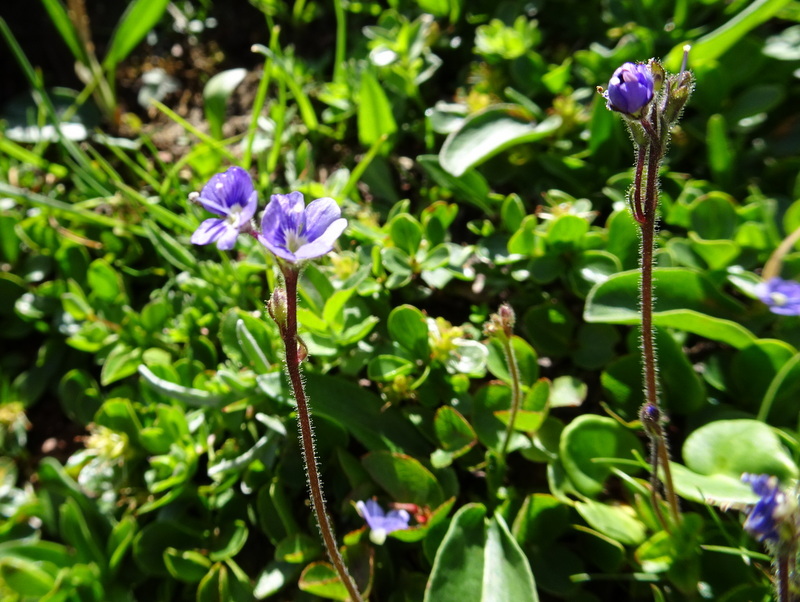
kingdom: Plantae
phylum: Tracheophyta
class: Magnoliopsida
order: Lamiales
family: Plantaginaceae
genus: Veronica
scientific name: Veronica aphylla
